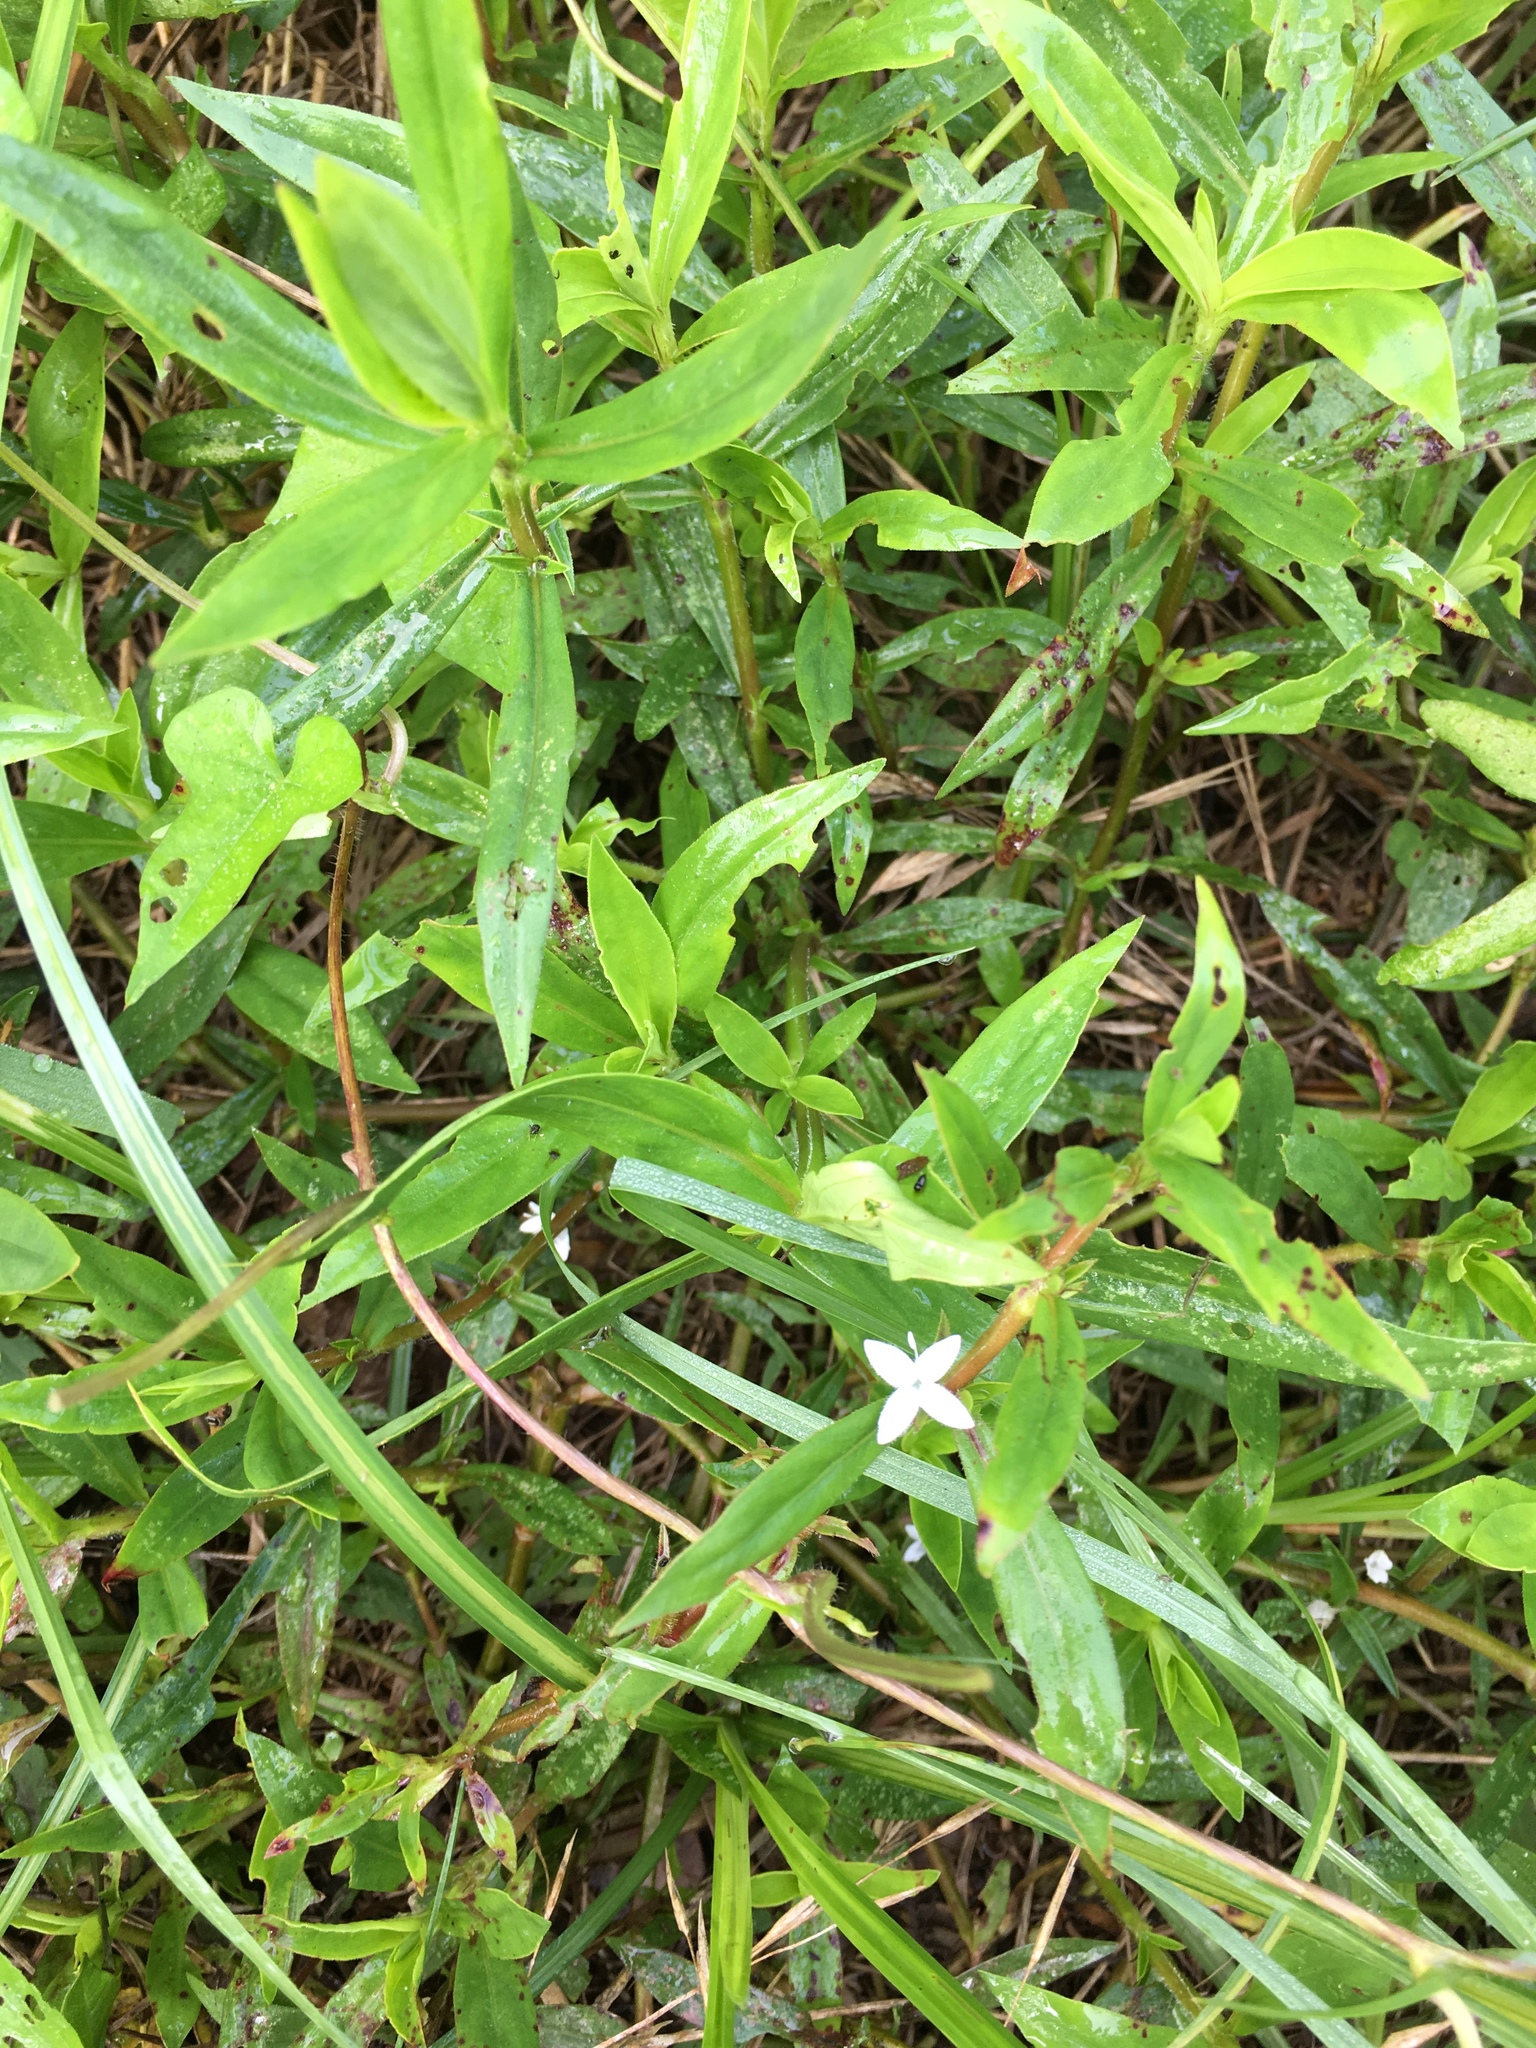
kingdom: Plantae
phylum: Tracheophyta
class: Magnoliopsida
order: Gentianales
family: Rubiaceae
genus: Diodia
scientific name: Diodia virginiana
